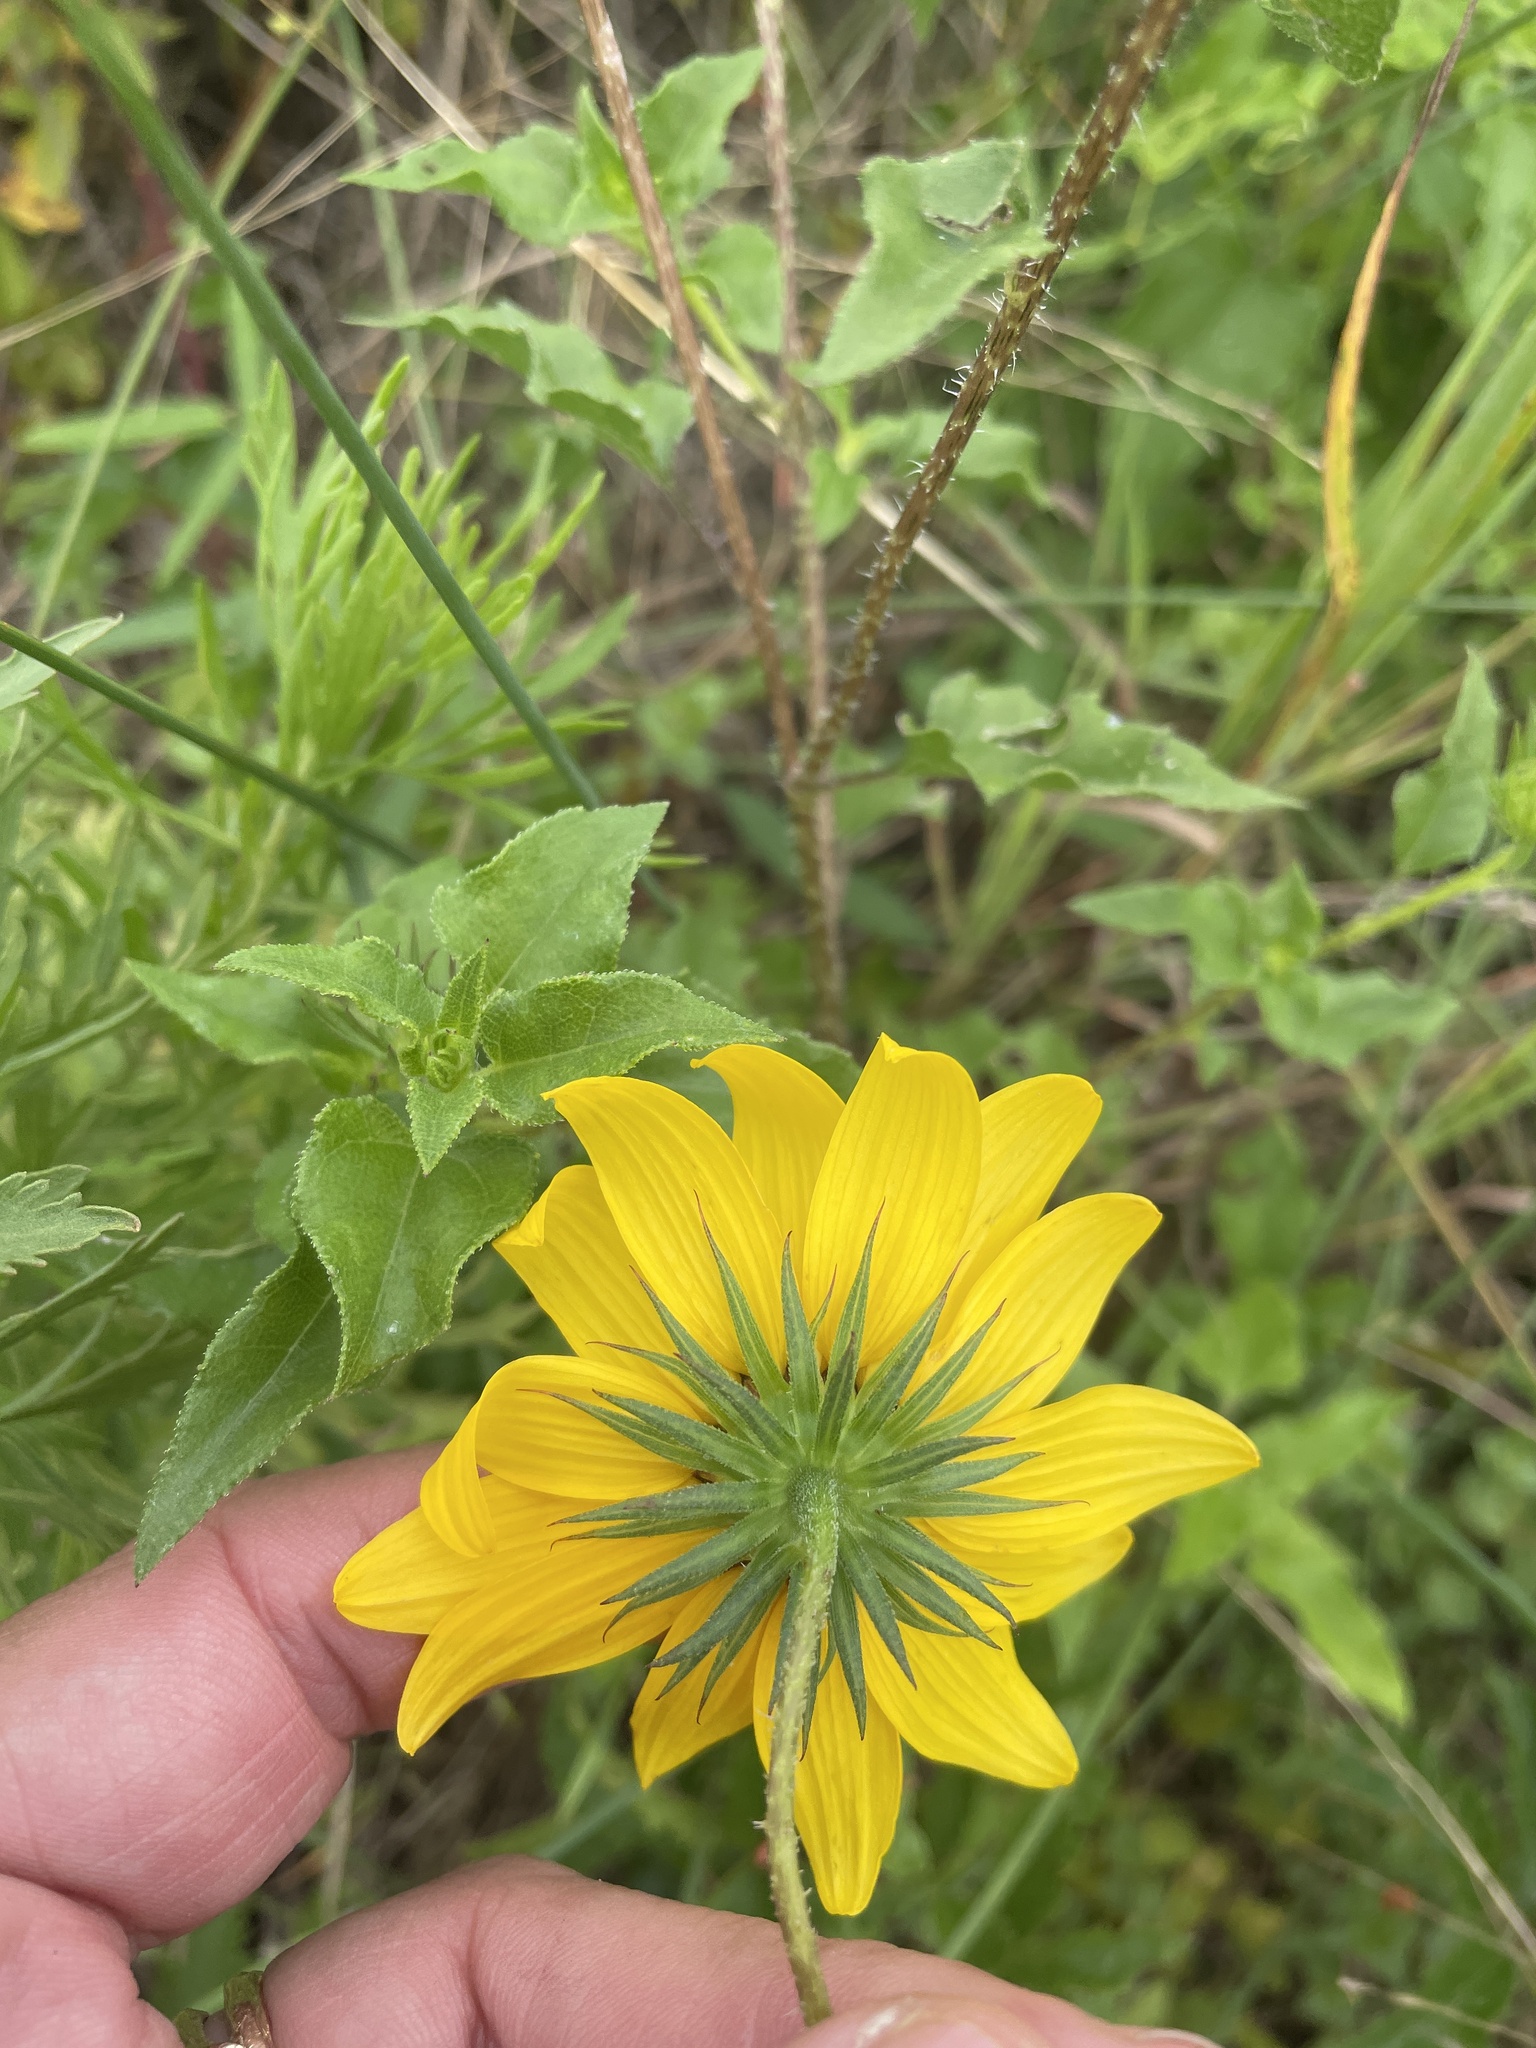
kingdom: Plantae
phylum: Tracheophyta
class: Magnoliopsida
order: Asterales
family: Asteraceae
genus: Helianthus
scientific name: Helianthus debilis
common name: Weak sunflower
